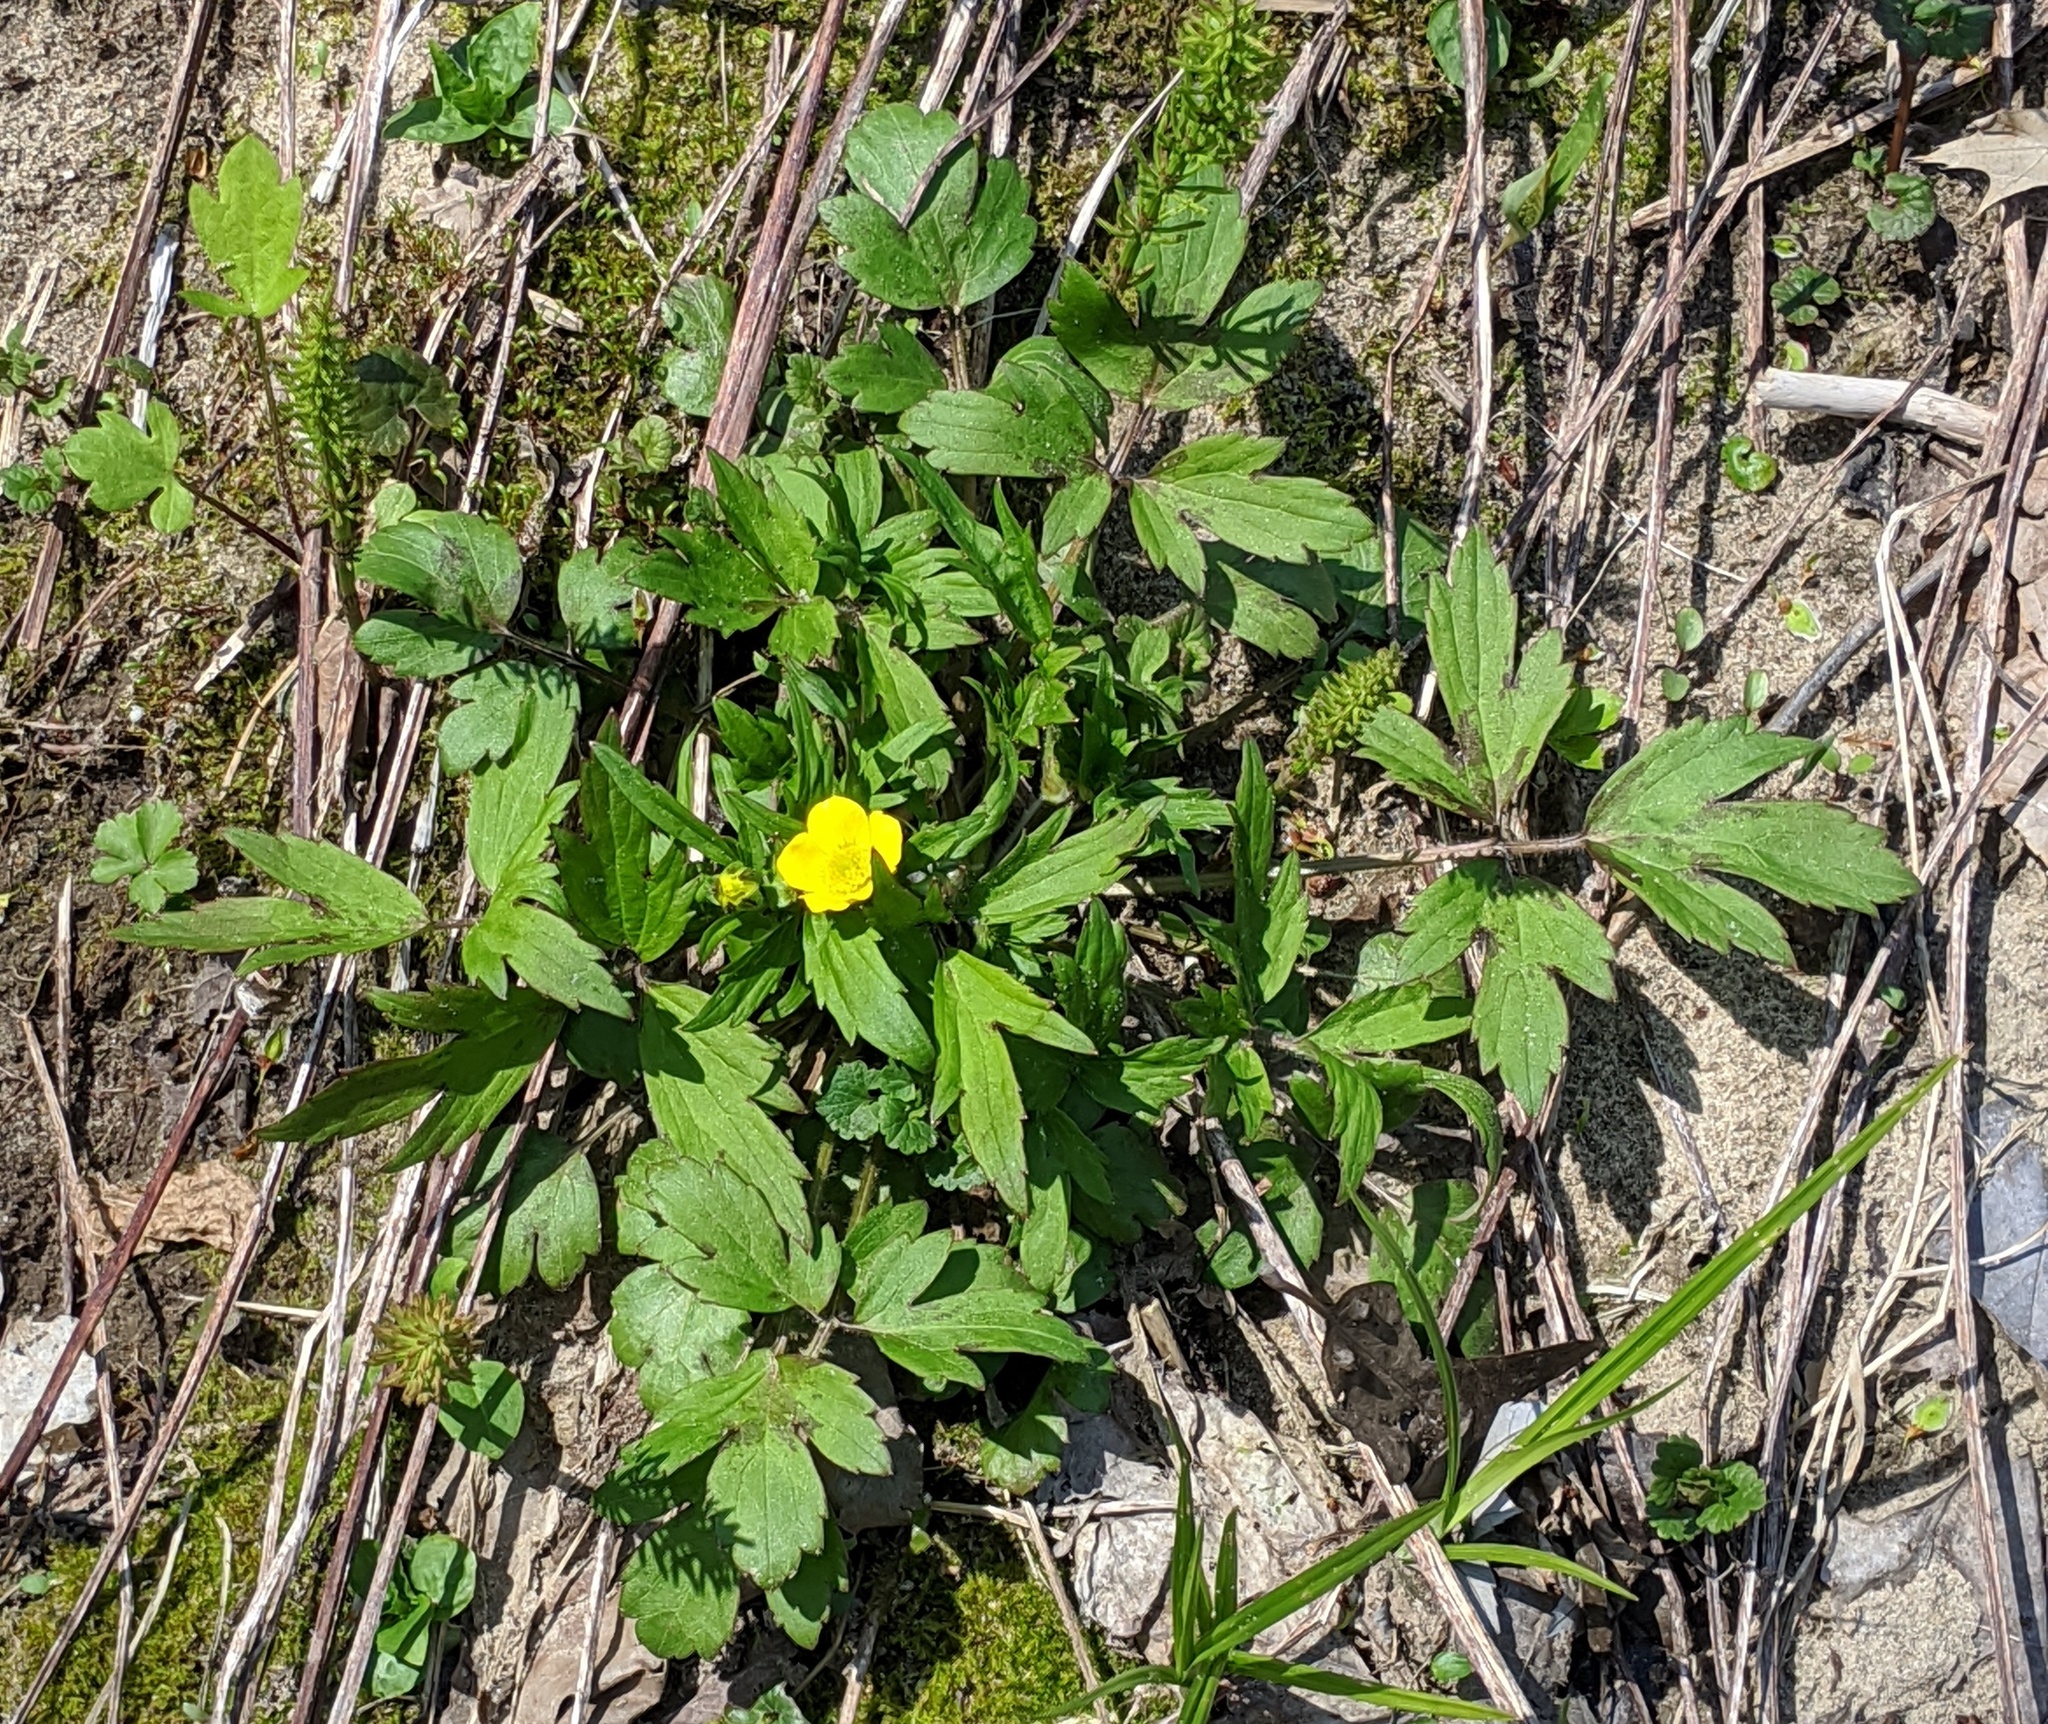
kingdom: Plantae
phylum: Tracheophyta
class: Magnoliopsida
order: Ranunculales
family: Ranunculaceae
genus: Ranunculus
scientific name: Ranunculus hispidus
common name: Bristly buttercup
